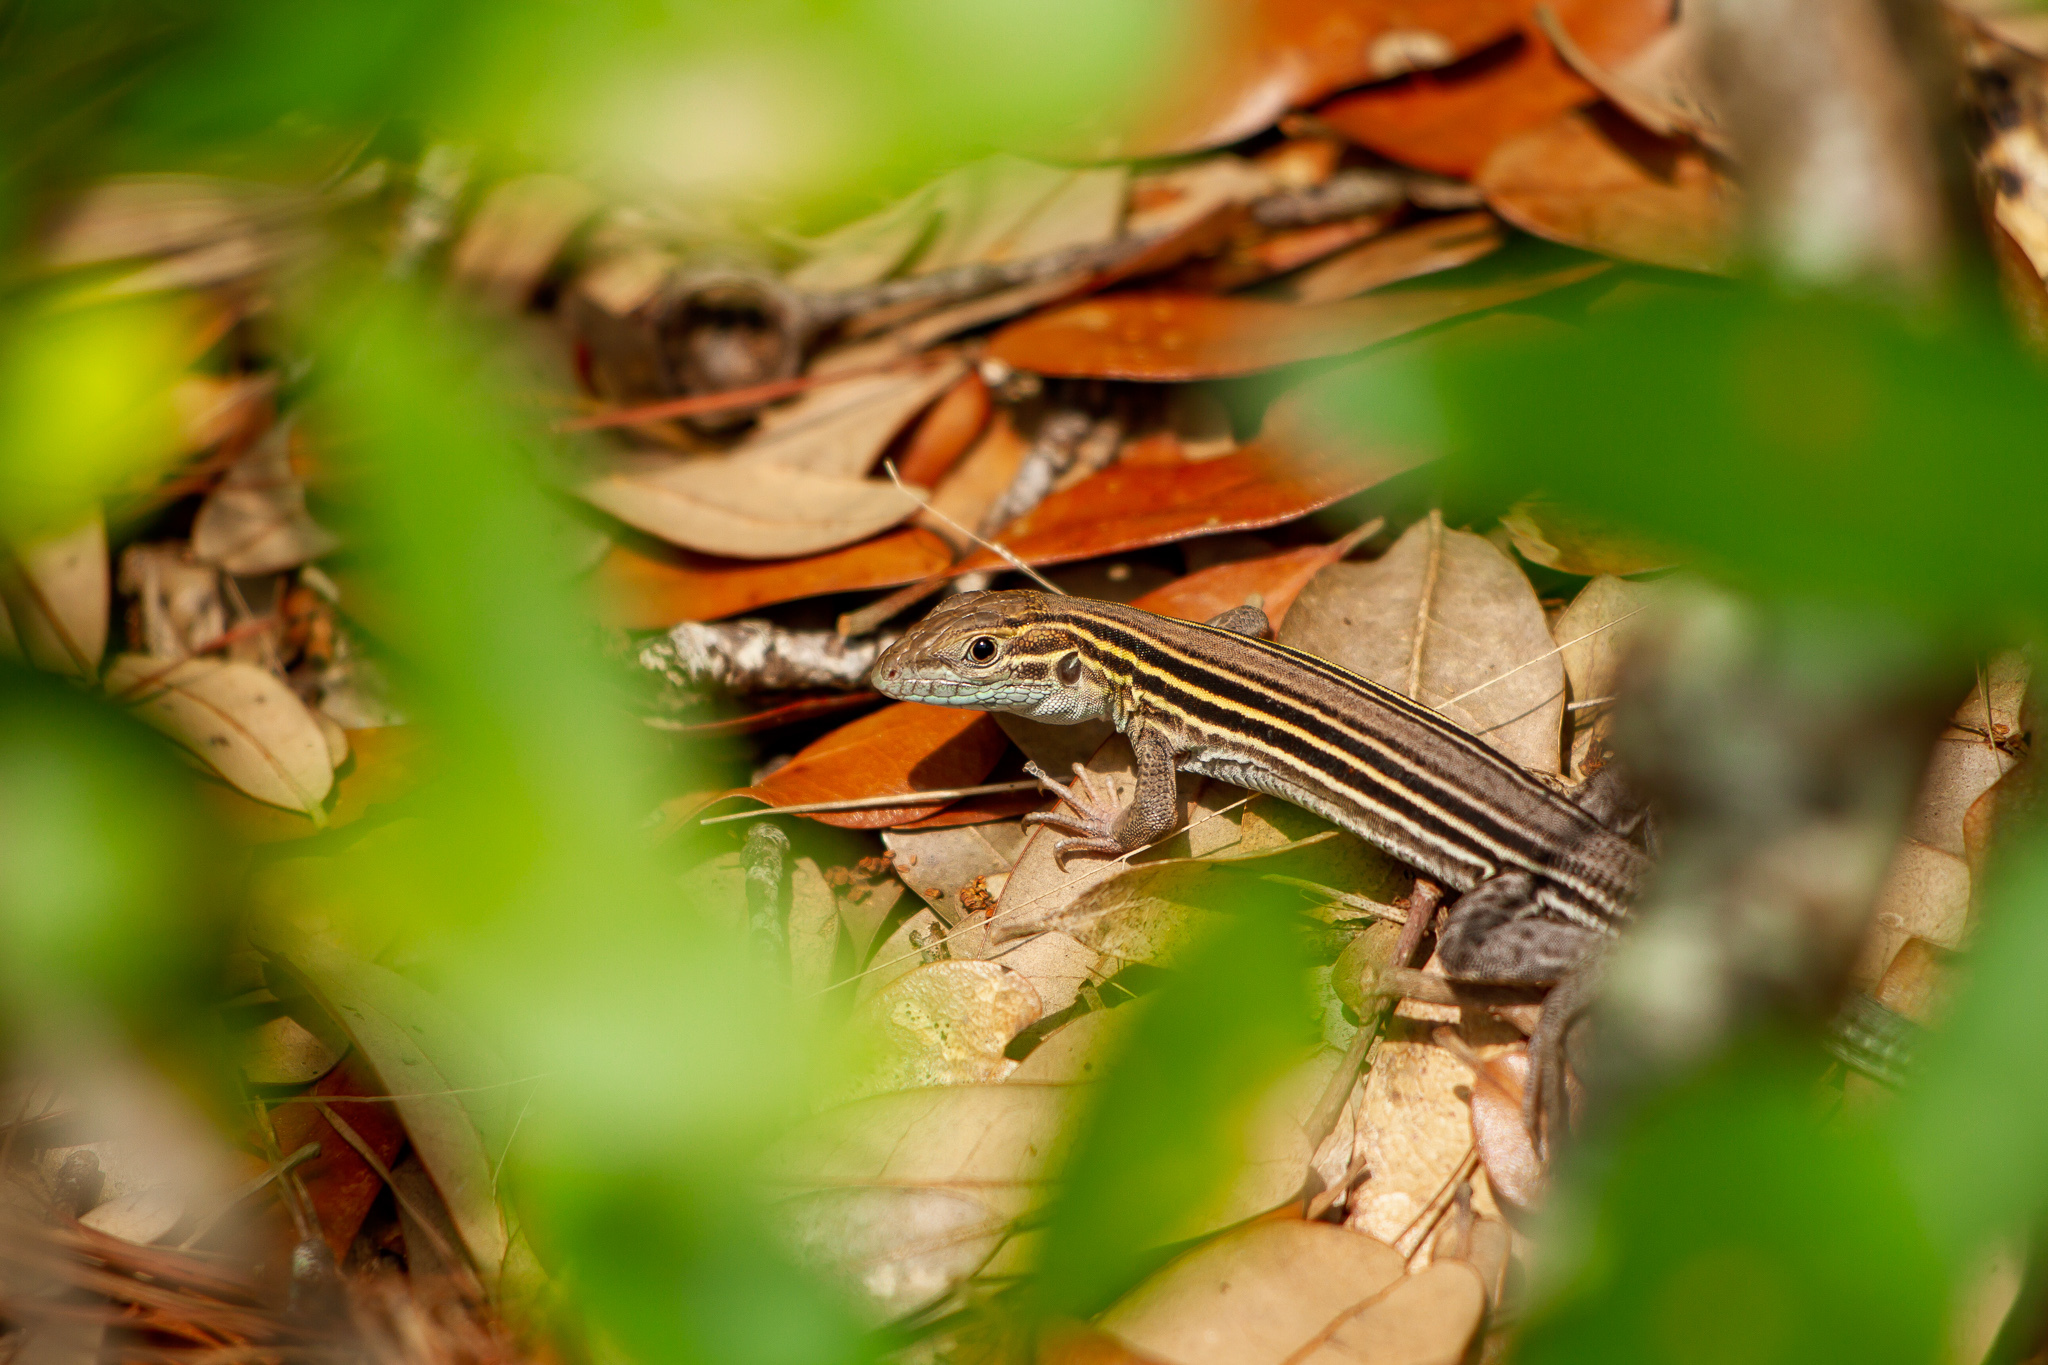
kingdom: Animalia
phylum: Chordata
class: Squamata
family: Teiidae
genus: Aspidoscelis
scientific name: Aspidoscelis sexlineatus
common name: Six-lined racerunner
